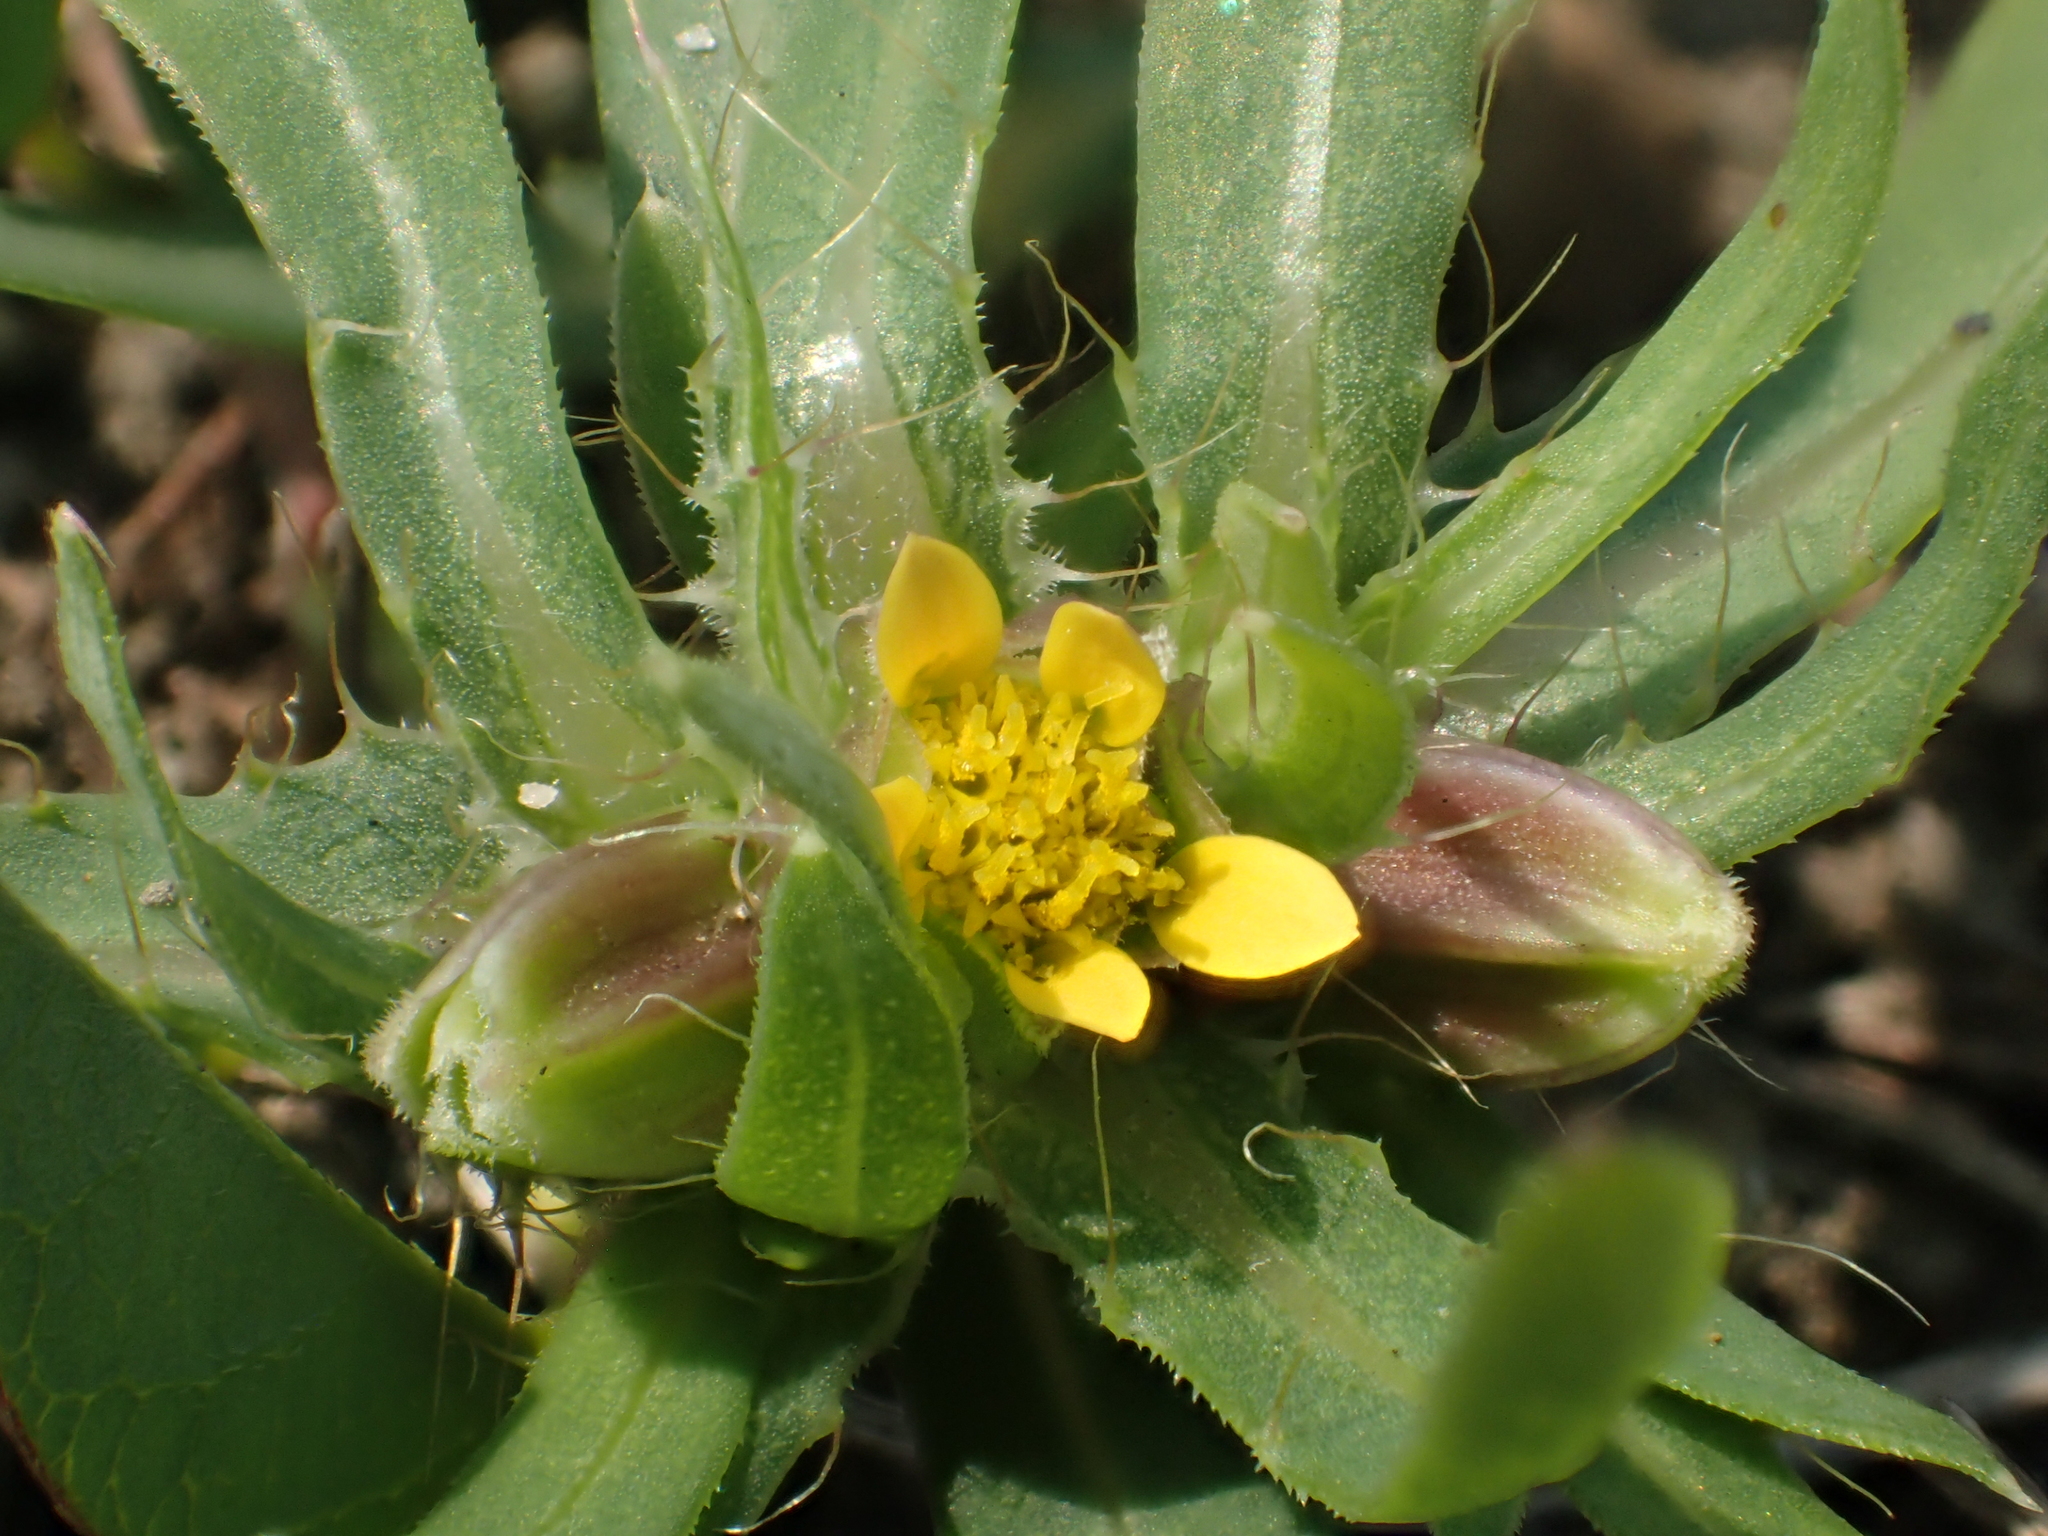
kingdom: Plantae
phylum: Tracheophyta
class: Magnoliopsida
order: Asterales
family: Asteraceae
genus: Pectis
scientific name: Pectis prostrata
